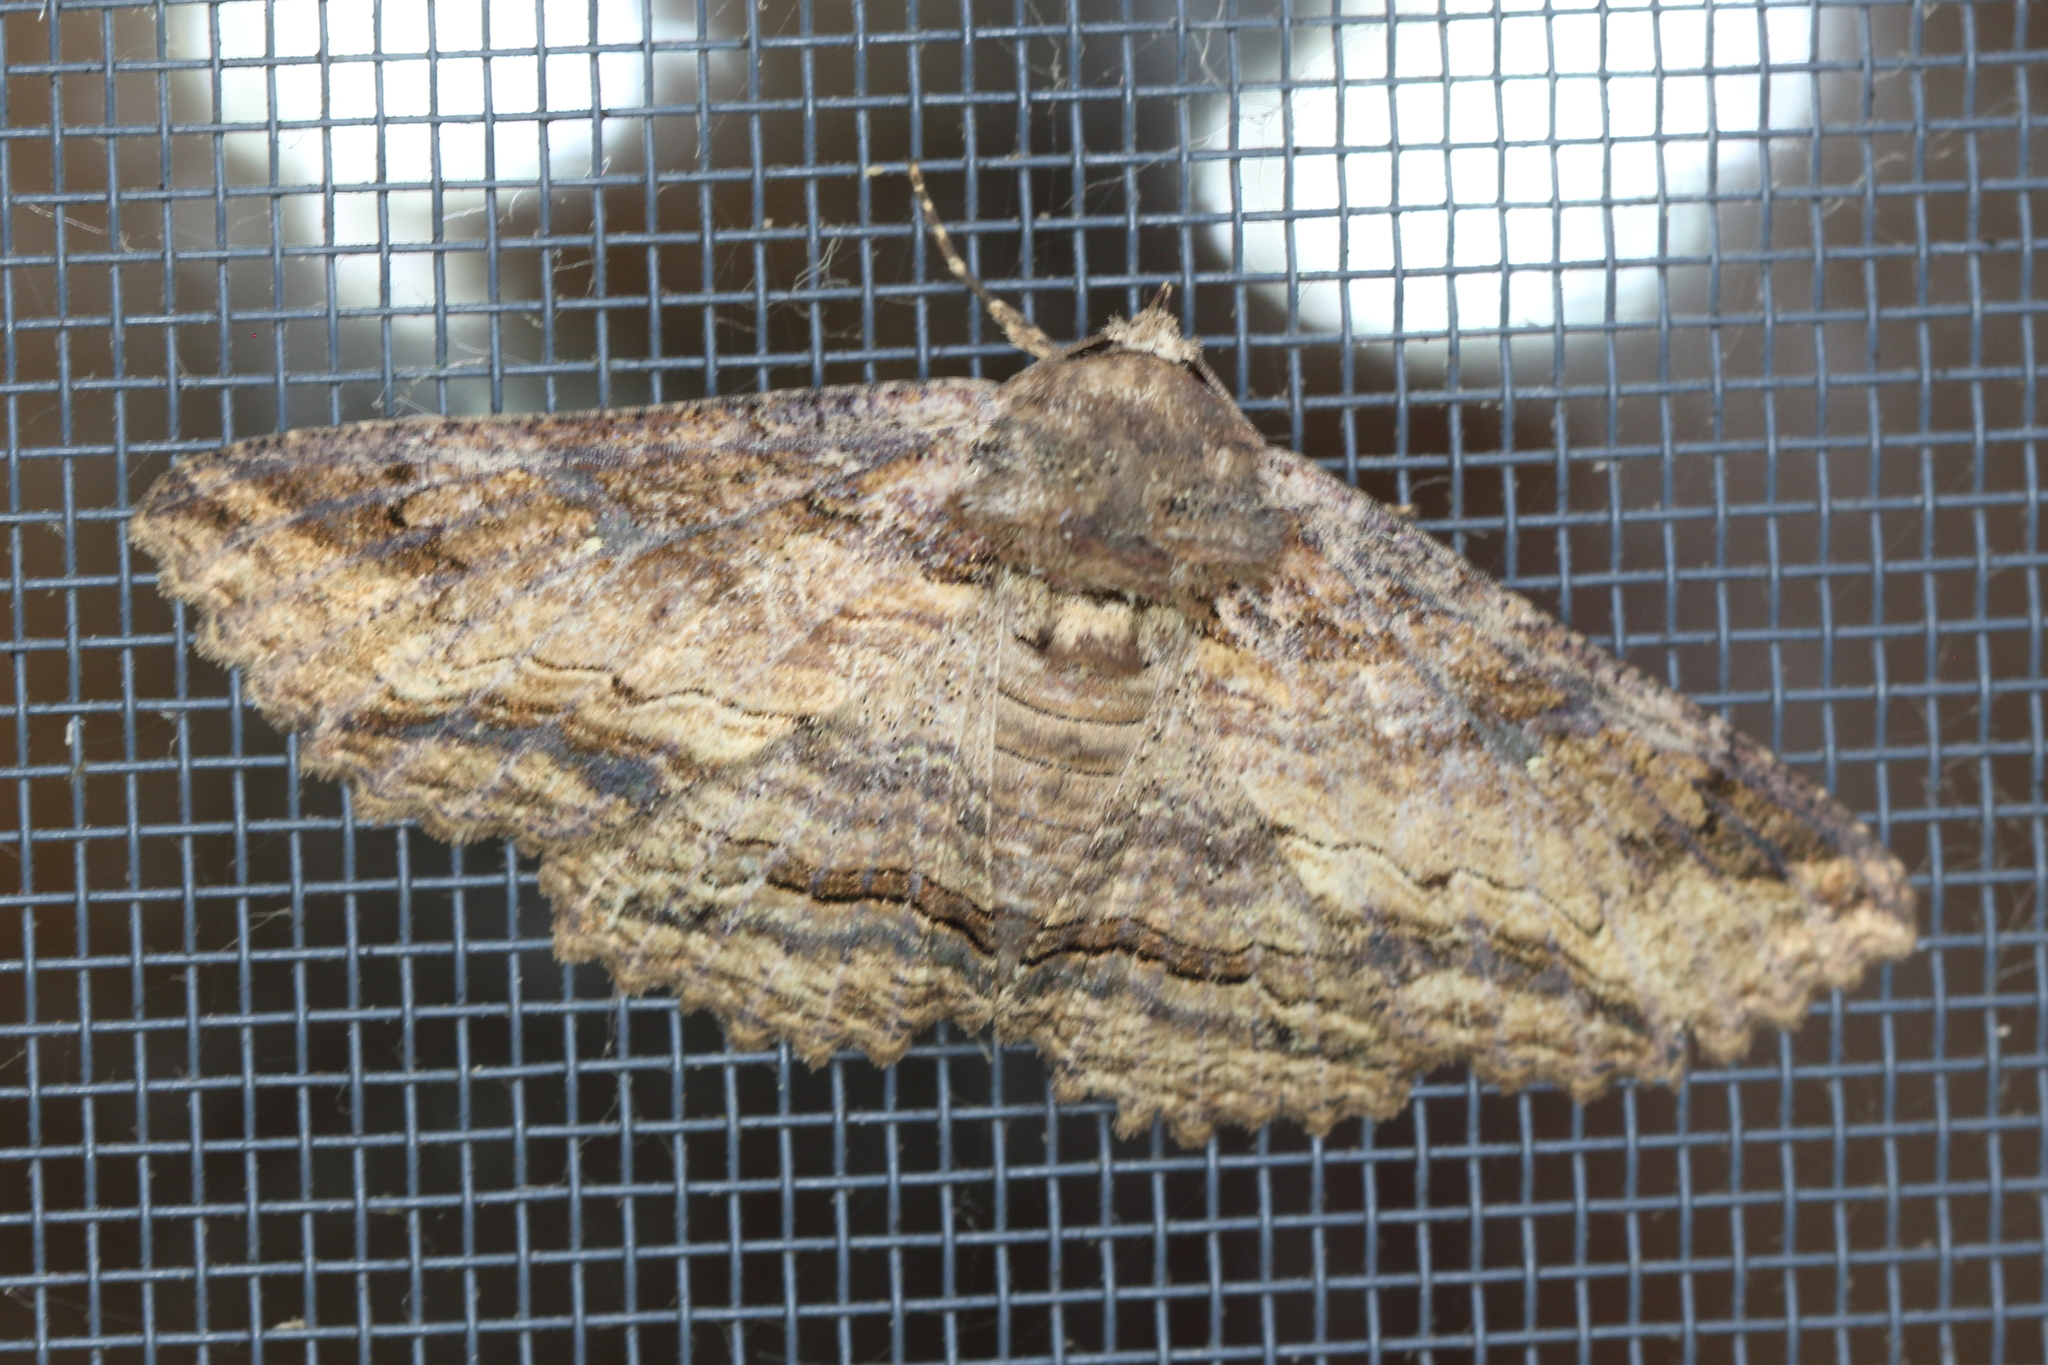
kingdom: Animalia
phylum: Arthropoda
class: Insecta
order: Lepidoptera
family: Erebidae
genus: Zale
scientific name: Zale lunata
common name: Lunate zale moth
